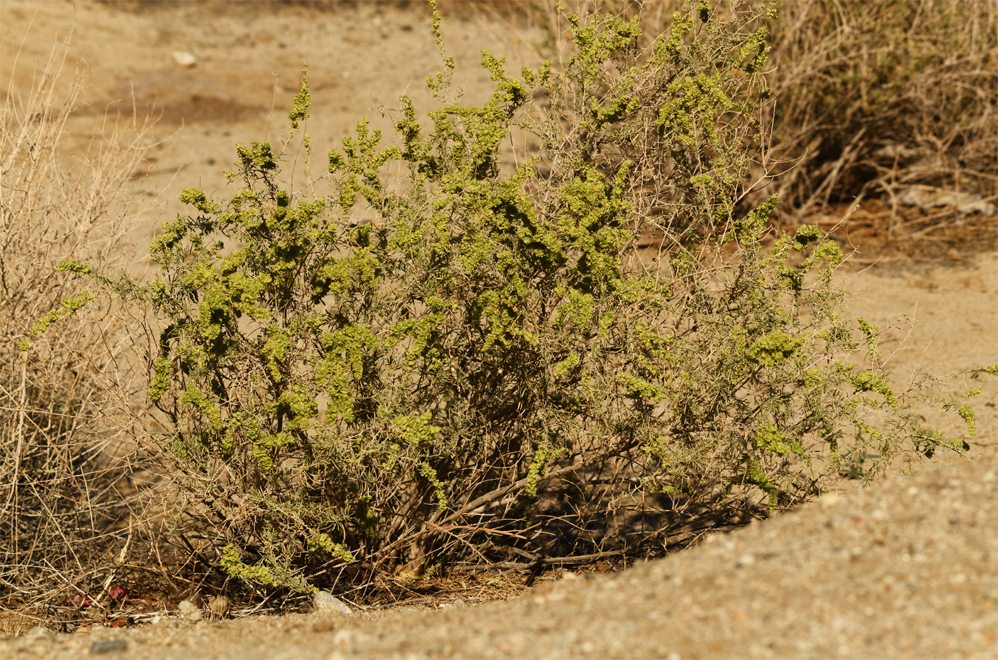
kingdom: Plantae
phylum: Tracheophyta
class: Magnoliopsida
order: Caryophyllales
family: Amaranthaceae
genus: Atriplex
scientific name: Atriplex canescens
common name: Four-wing saltbush
